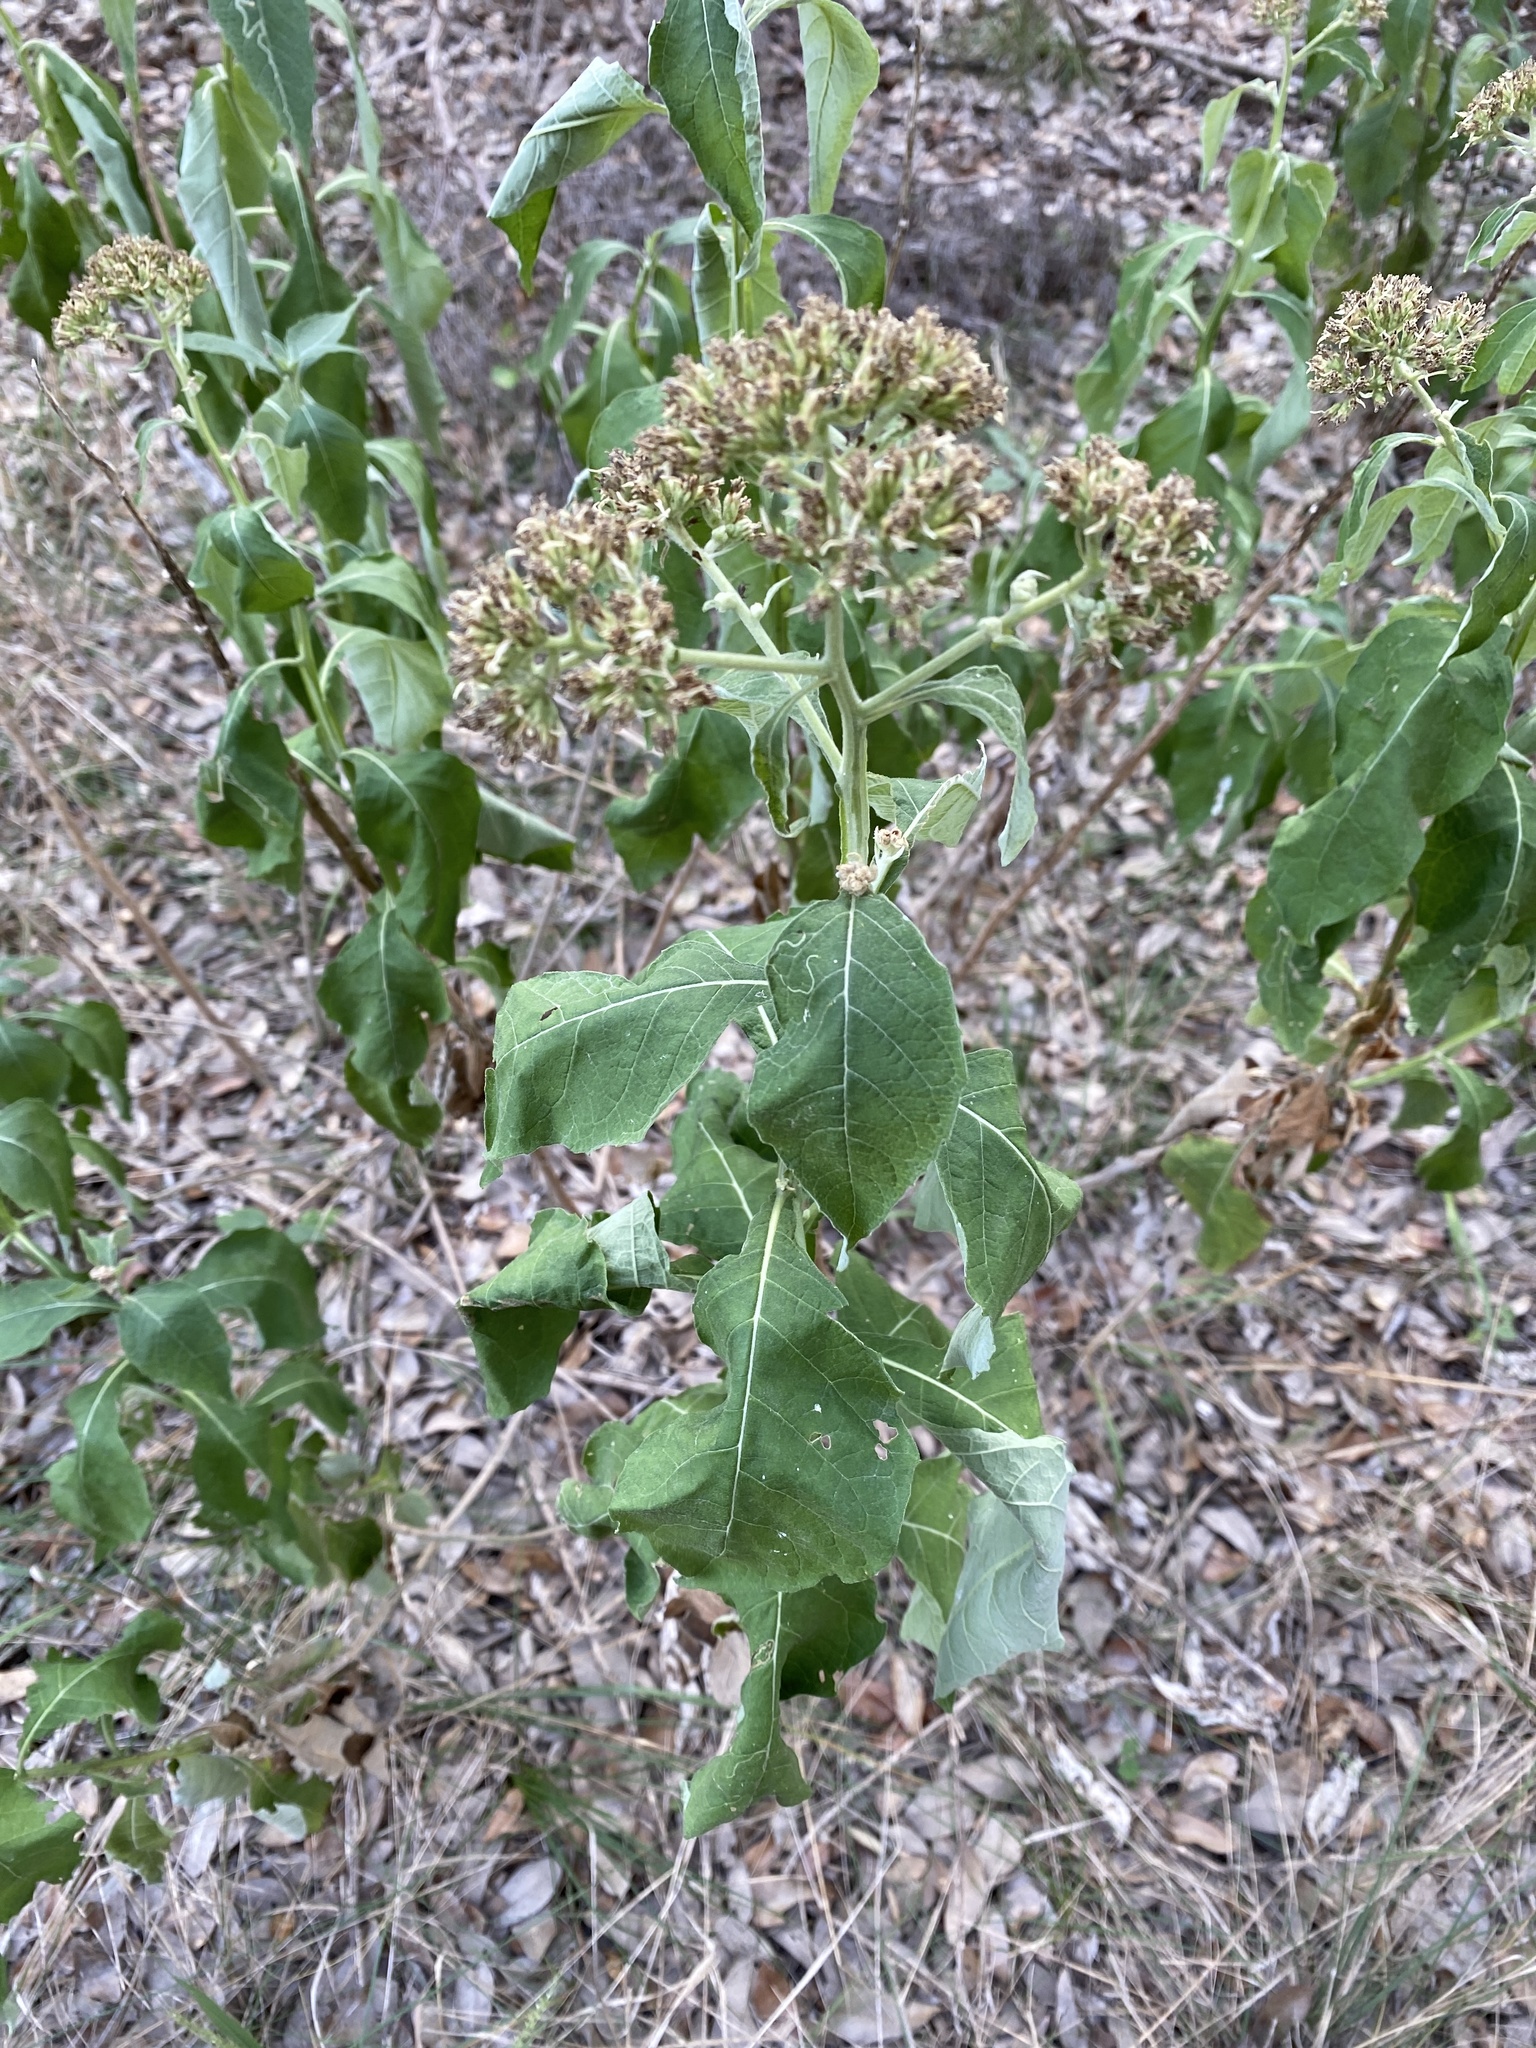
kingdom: Plantae
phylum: Tracheophyta
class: Magnoliopsida
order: Asterales
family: Asteraceae
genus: Verbesina
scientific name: Verbesina virginica
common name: Frostweed
